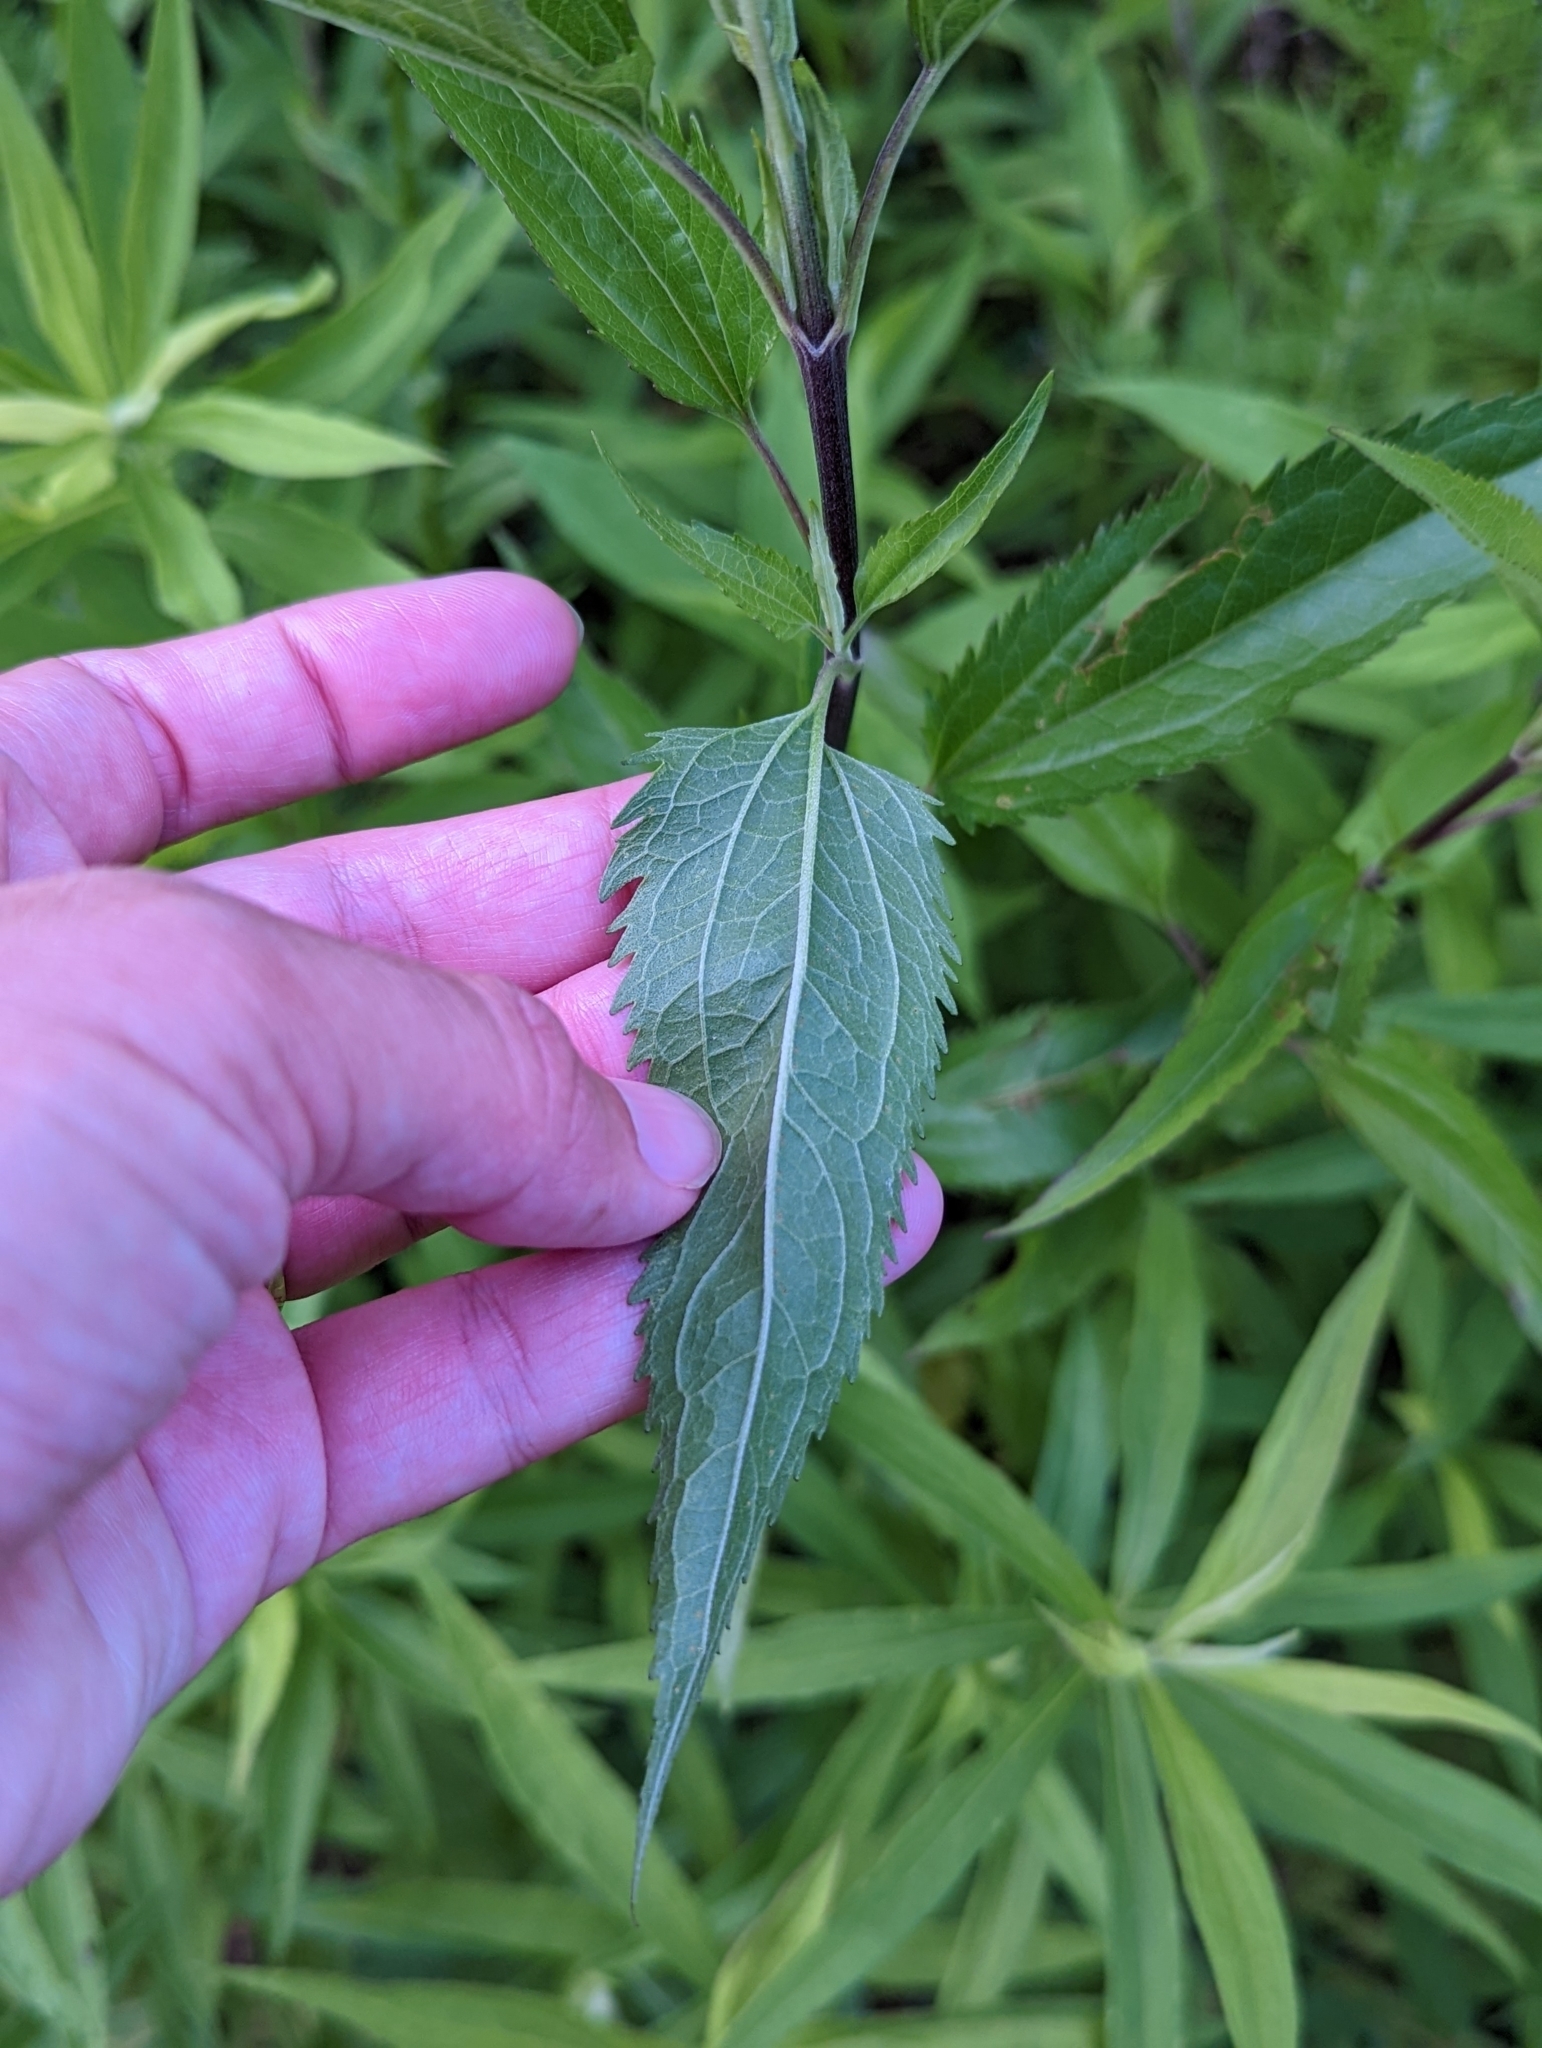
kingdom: Plantae
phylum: Tracheophyta
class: Magnoliopsida
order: Asterales
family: Asteraceae
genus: Eupatorium
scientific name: Eupatorium serotinum
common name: Late boneset
